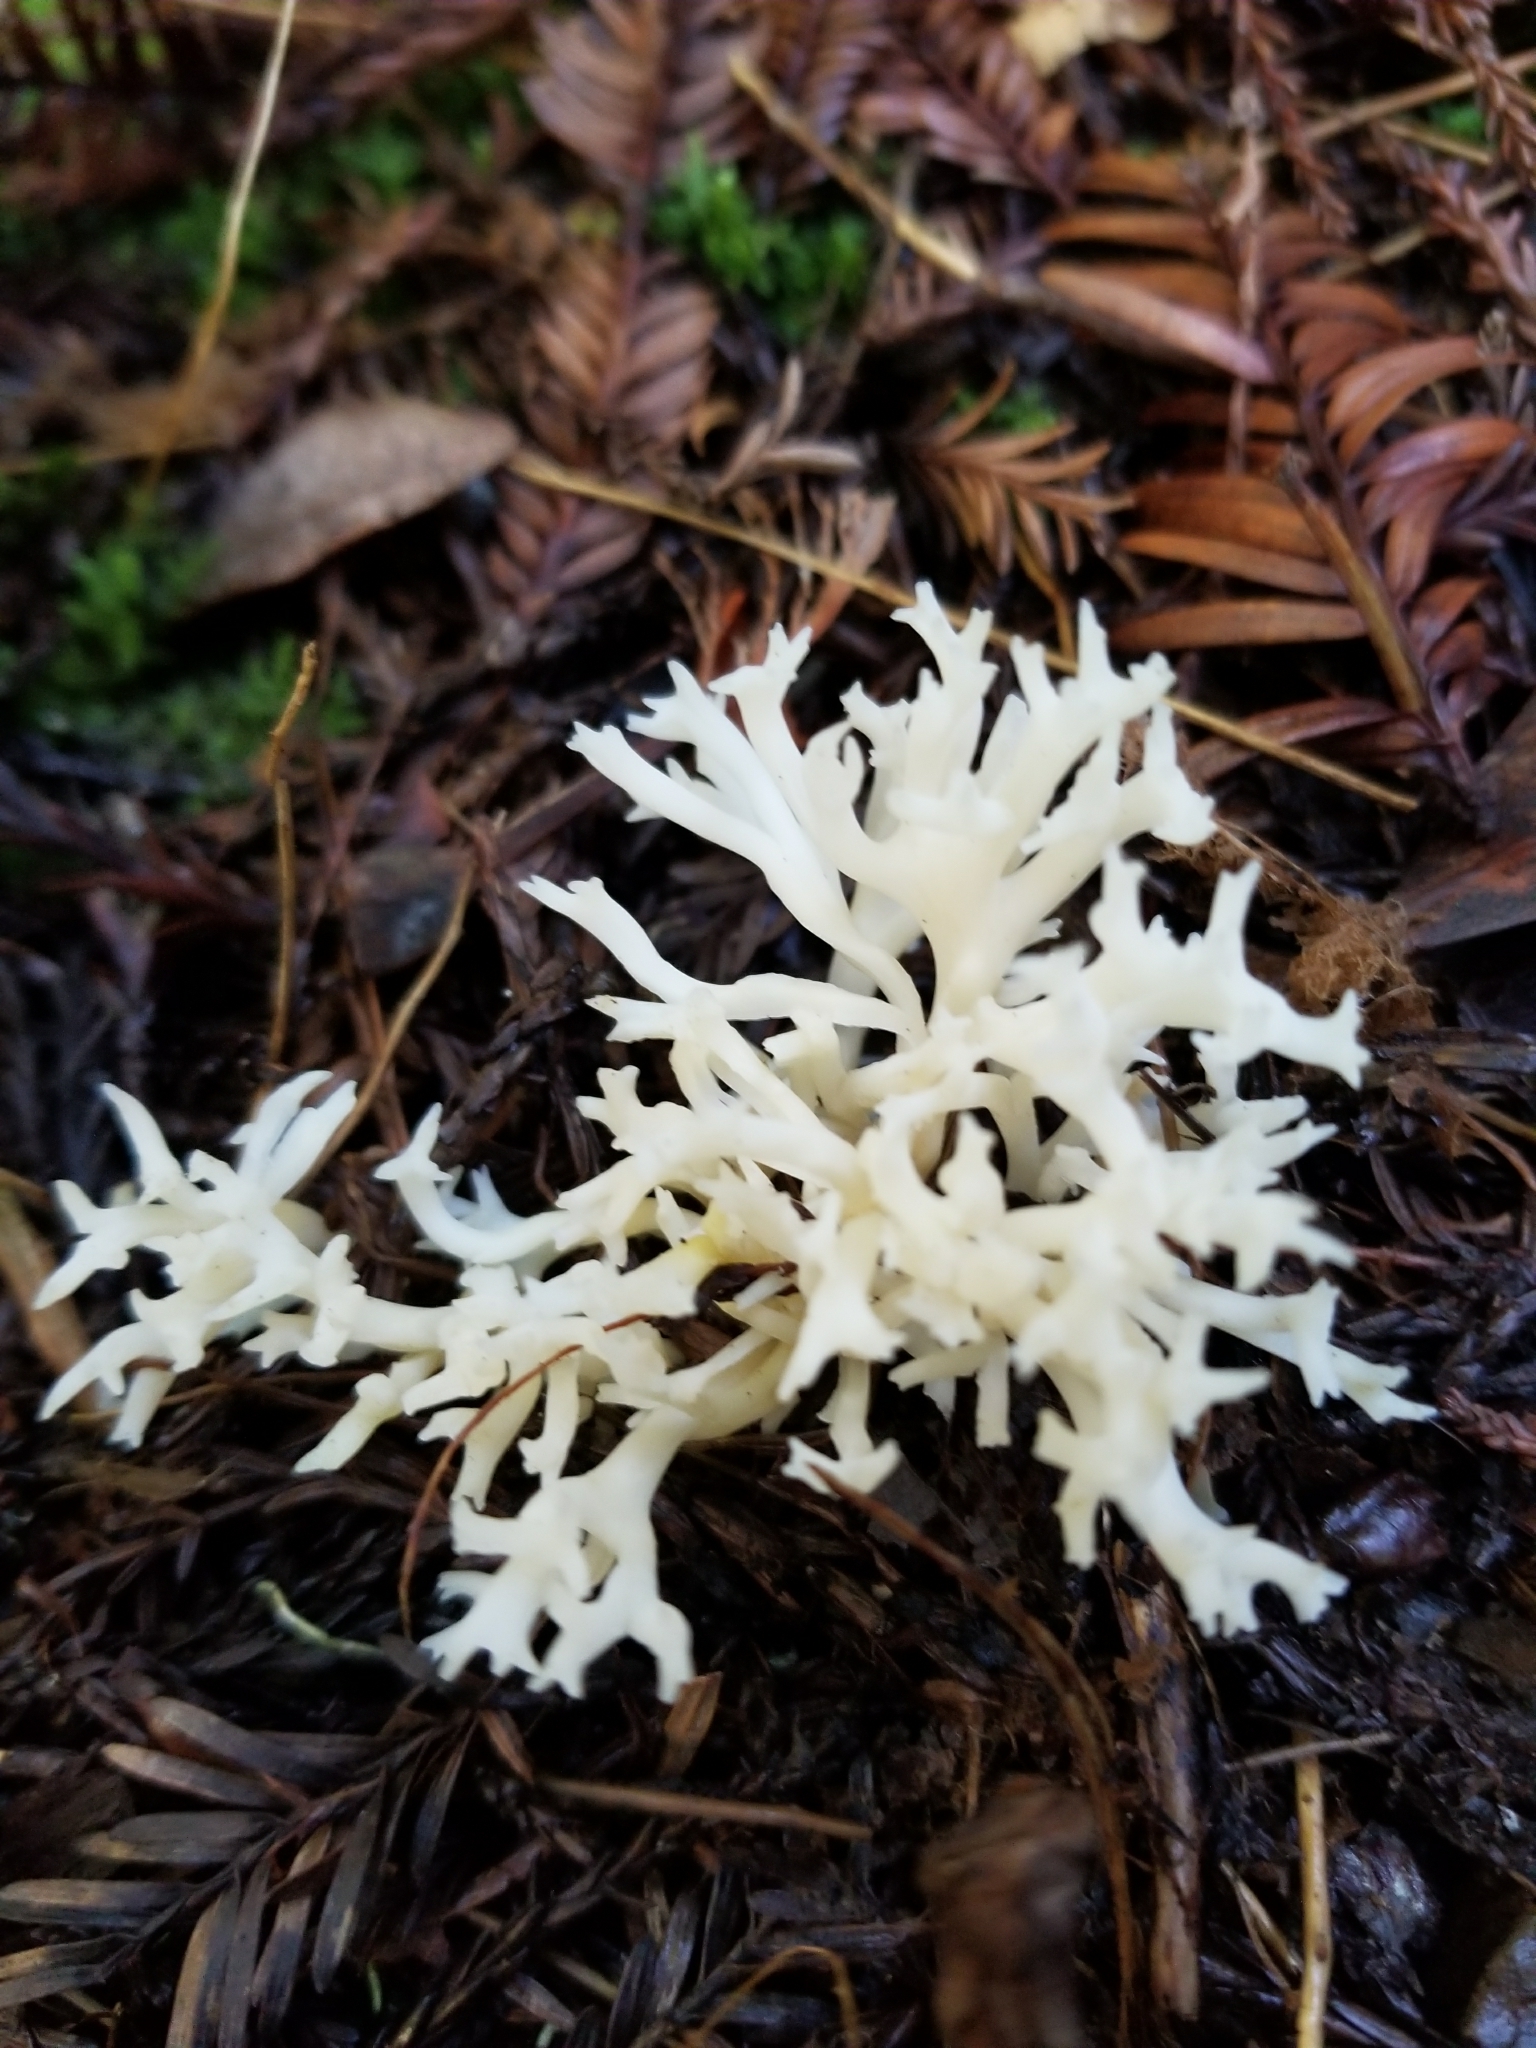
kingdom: Fungi
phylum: Basidiomycota
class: Agaricomycetes
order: Cantharellales
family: Hydnaceae
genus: Clavulina
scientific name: Clavulina coralloides
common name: Crested coral
